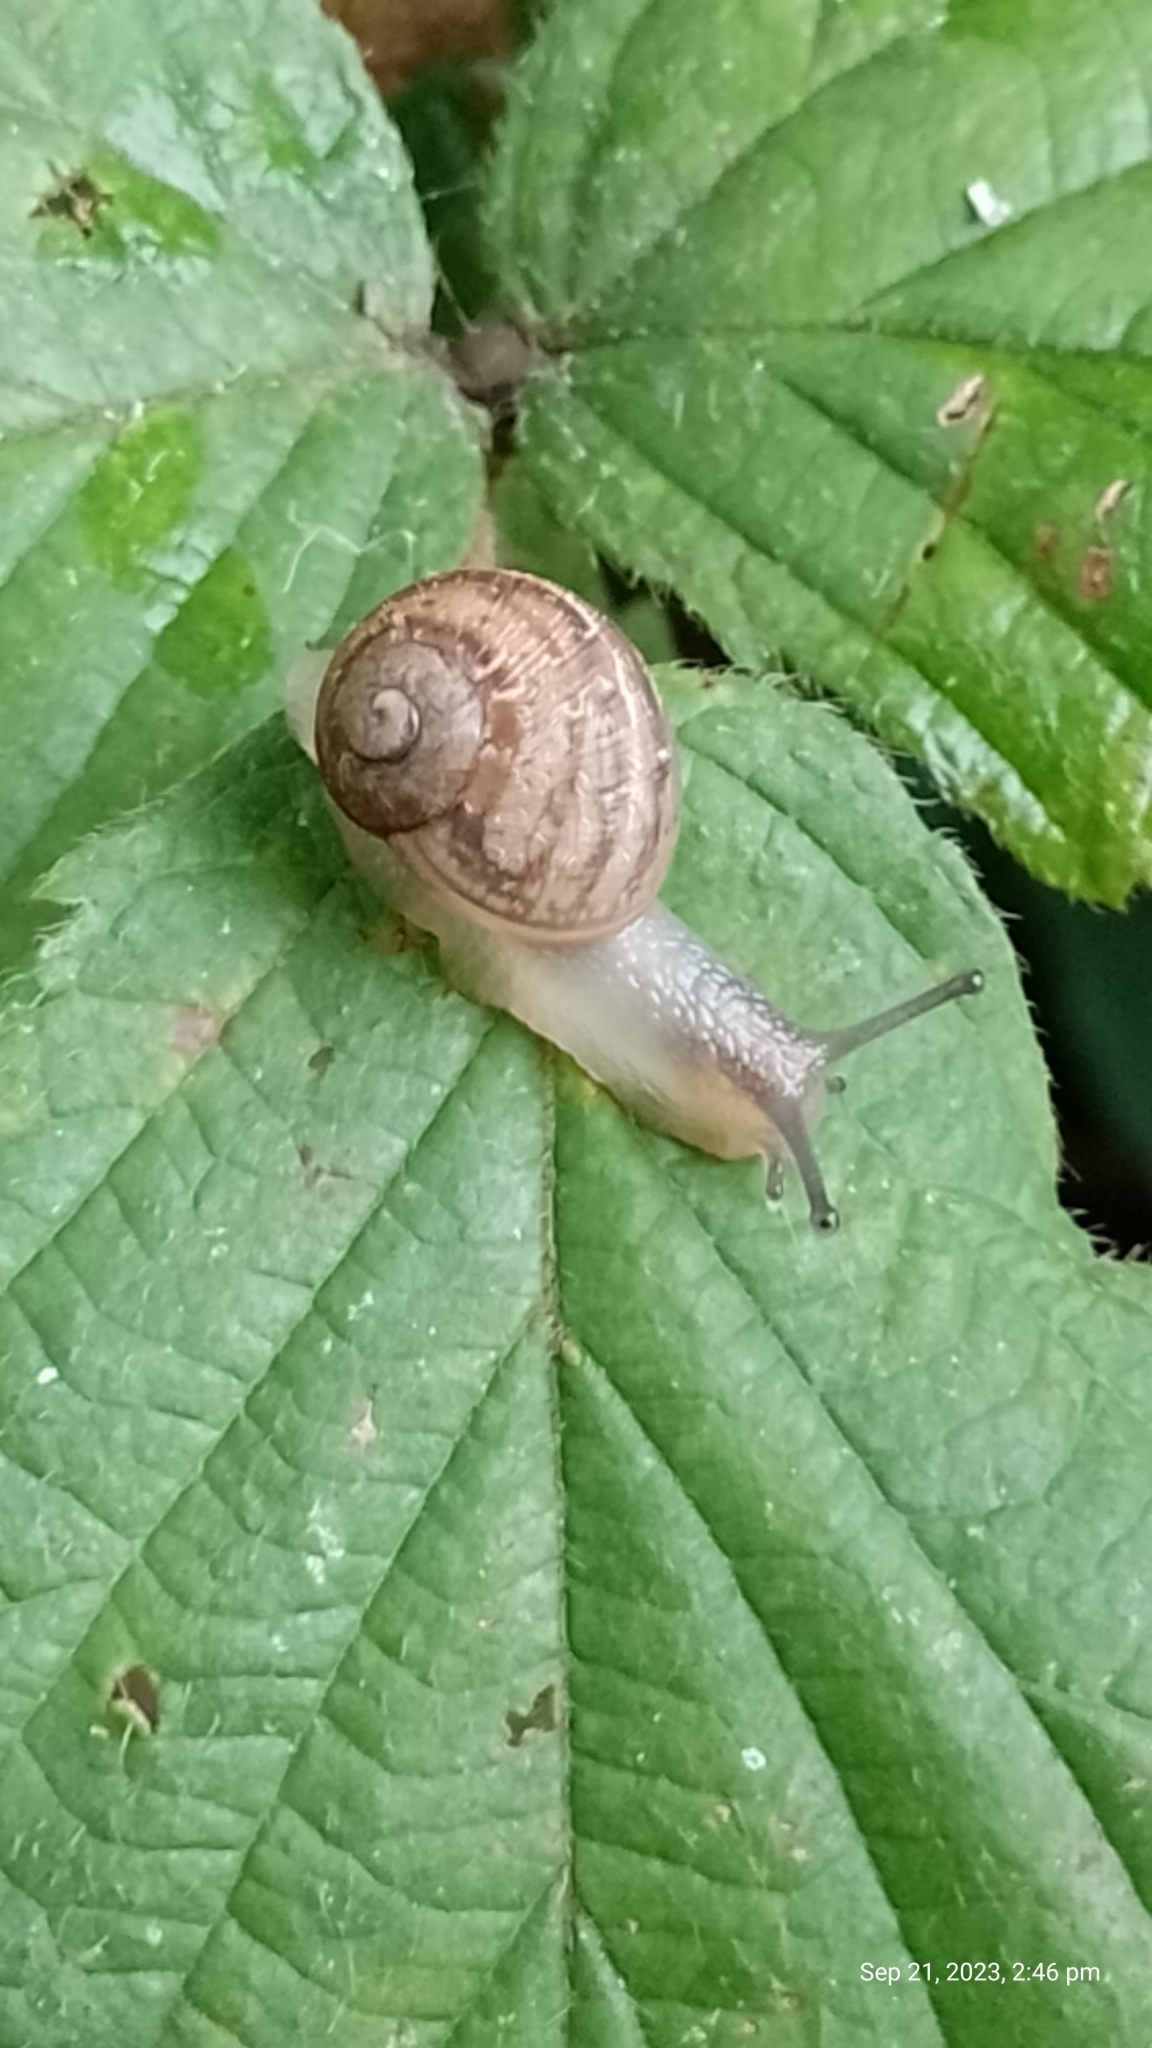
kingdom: Animalia
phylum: Mollusca
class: Gastropoda
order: Stylommatophora
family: Helicidae
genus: Cornu
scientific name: Cornu aspersum
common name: Brown garden snail
